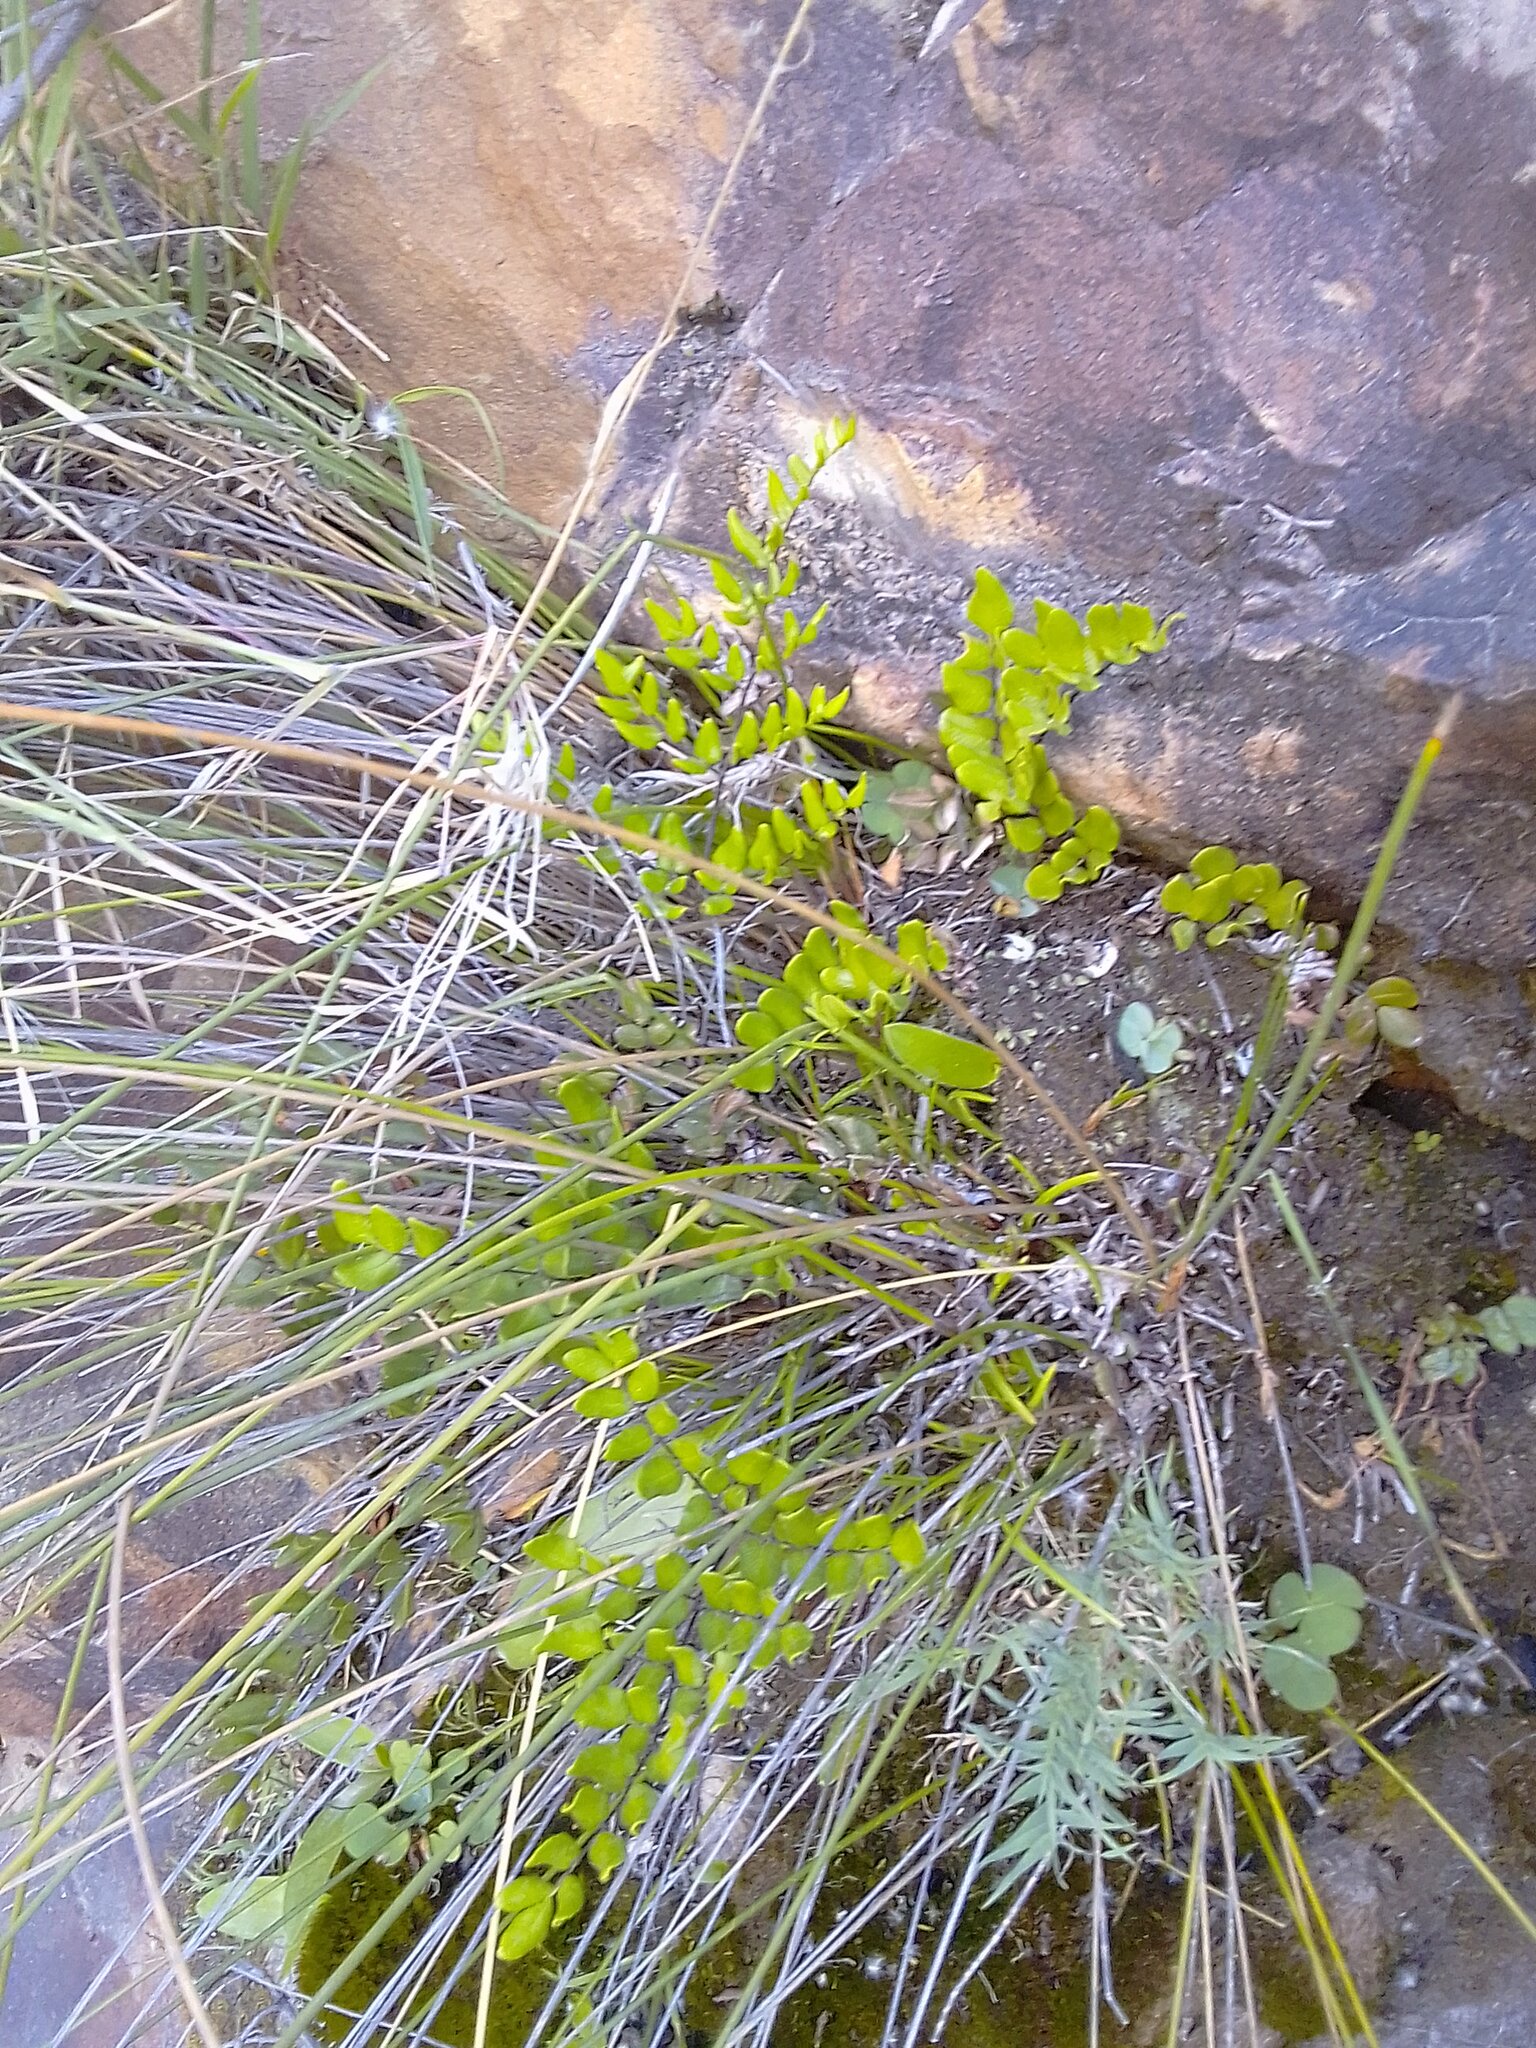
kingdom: Plantae
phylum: Tracheophyta
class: Polypodiopsida
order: Polypodiales
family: Pteridaceae
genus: Pellaea
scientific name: Pellaea pteroides
